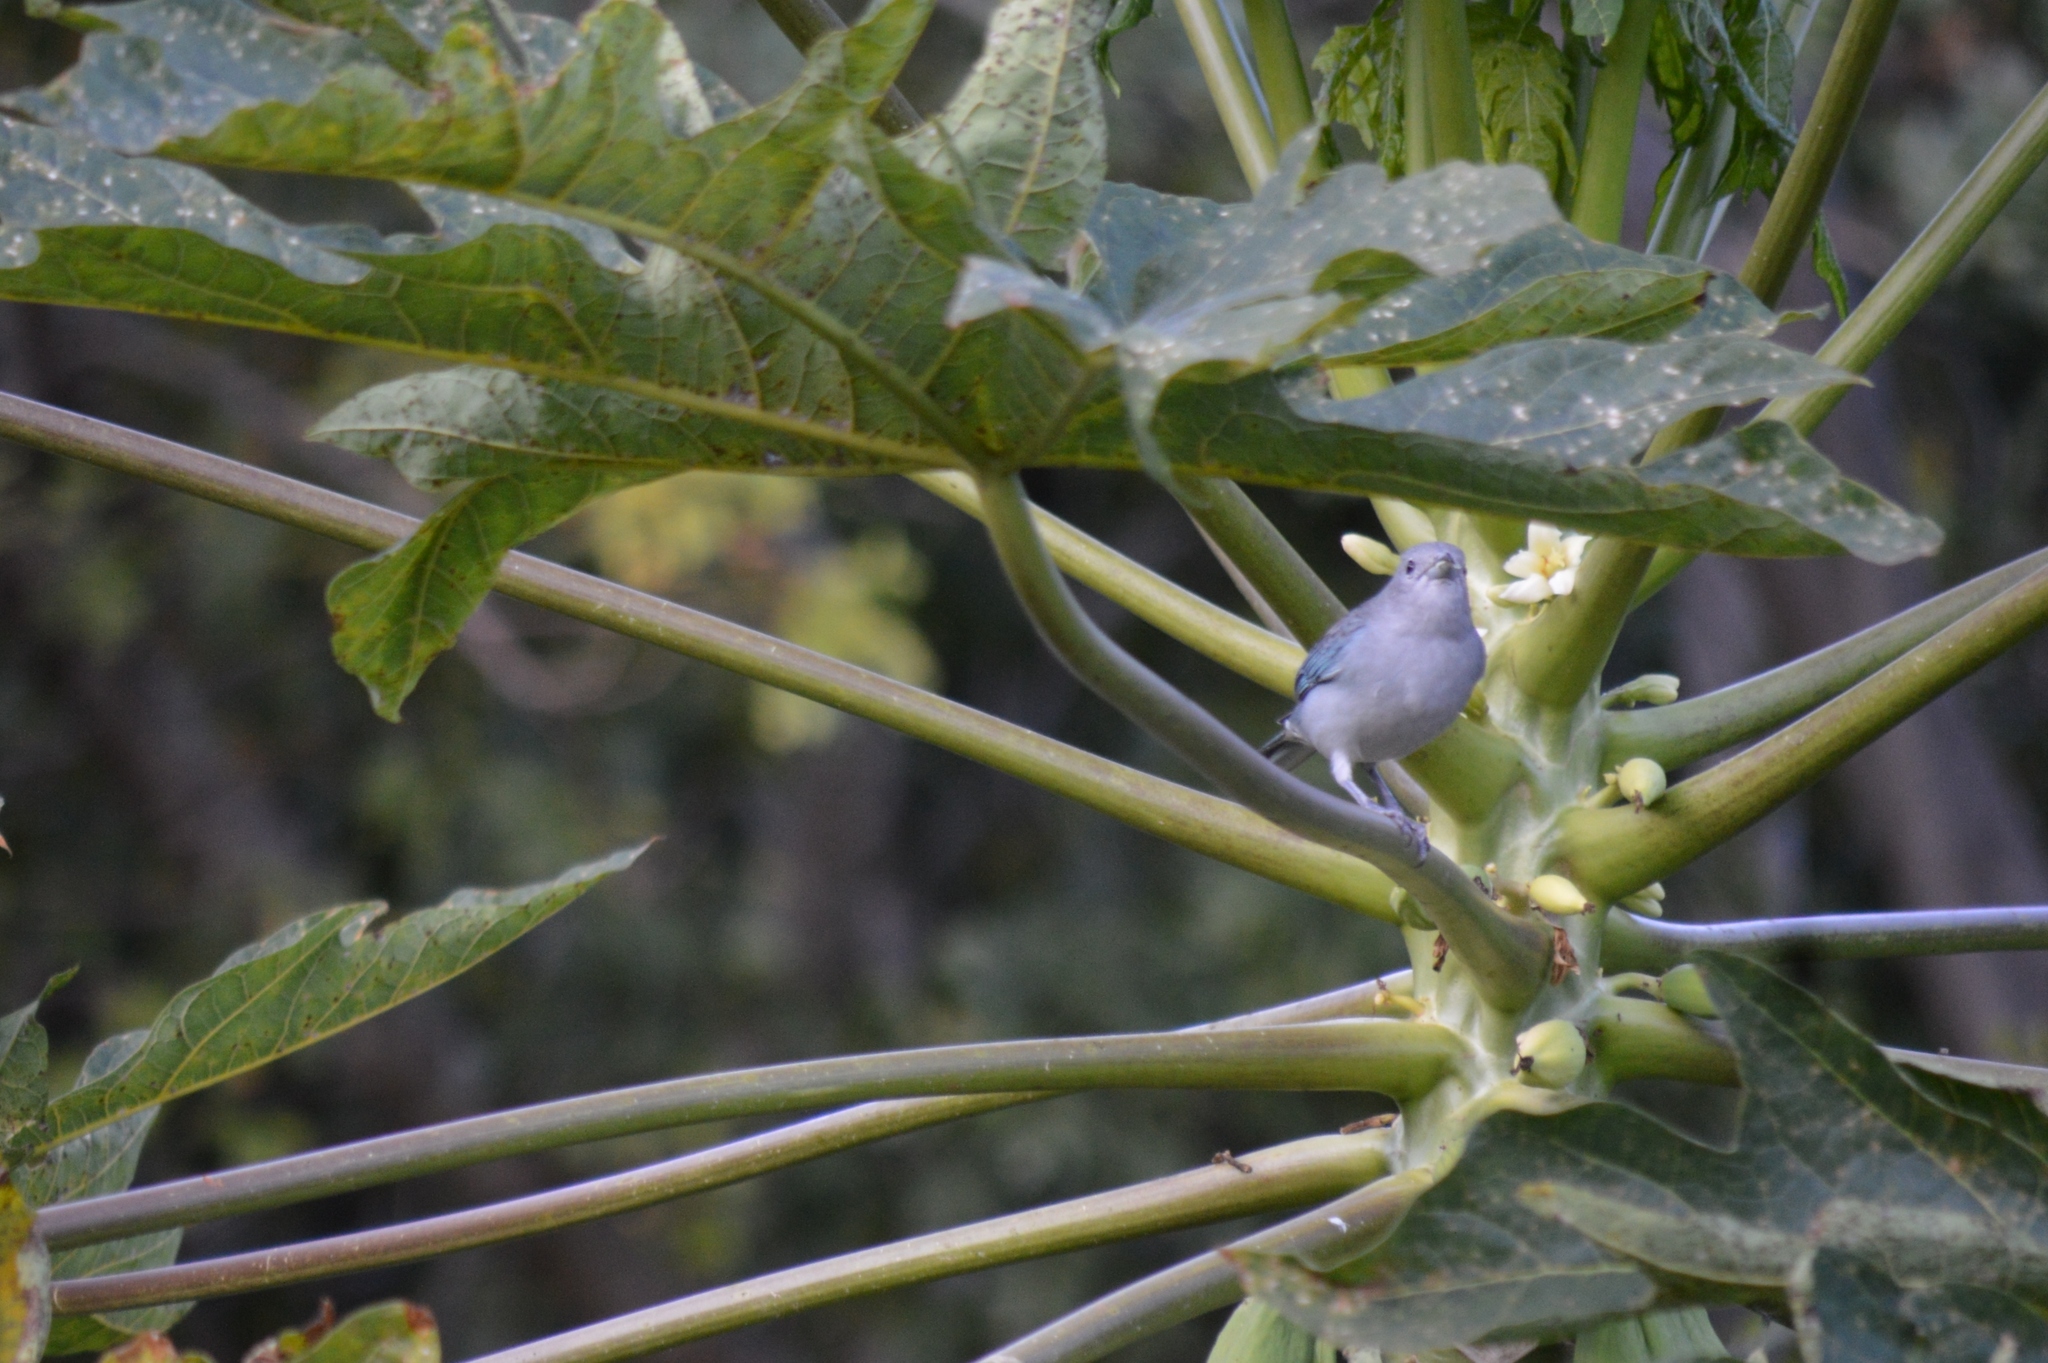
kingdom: Animalia
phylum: Chordata
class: Aves
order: Passeriformes
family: Thraupidae
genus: Thraupis
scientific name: Thraupis sayaca
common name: Sayaca tanager
